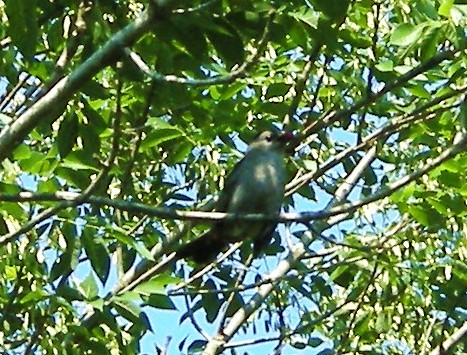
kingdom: Animalia
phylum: Chordata
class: Aves
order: Passeriformes
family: Mimidae
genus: Dumetella
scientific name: Dumetella carolinensis
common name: Gray catbird
